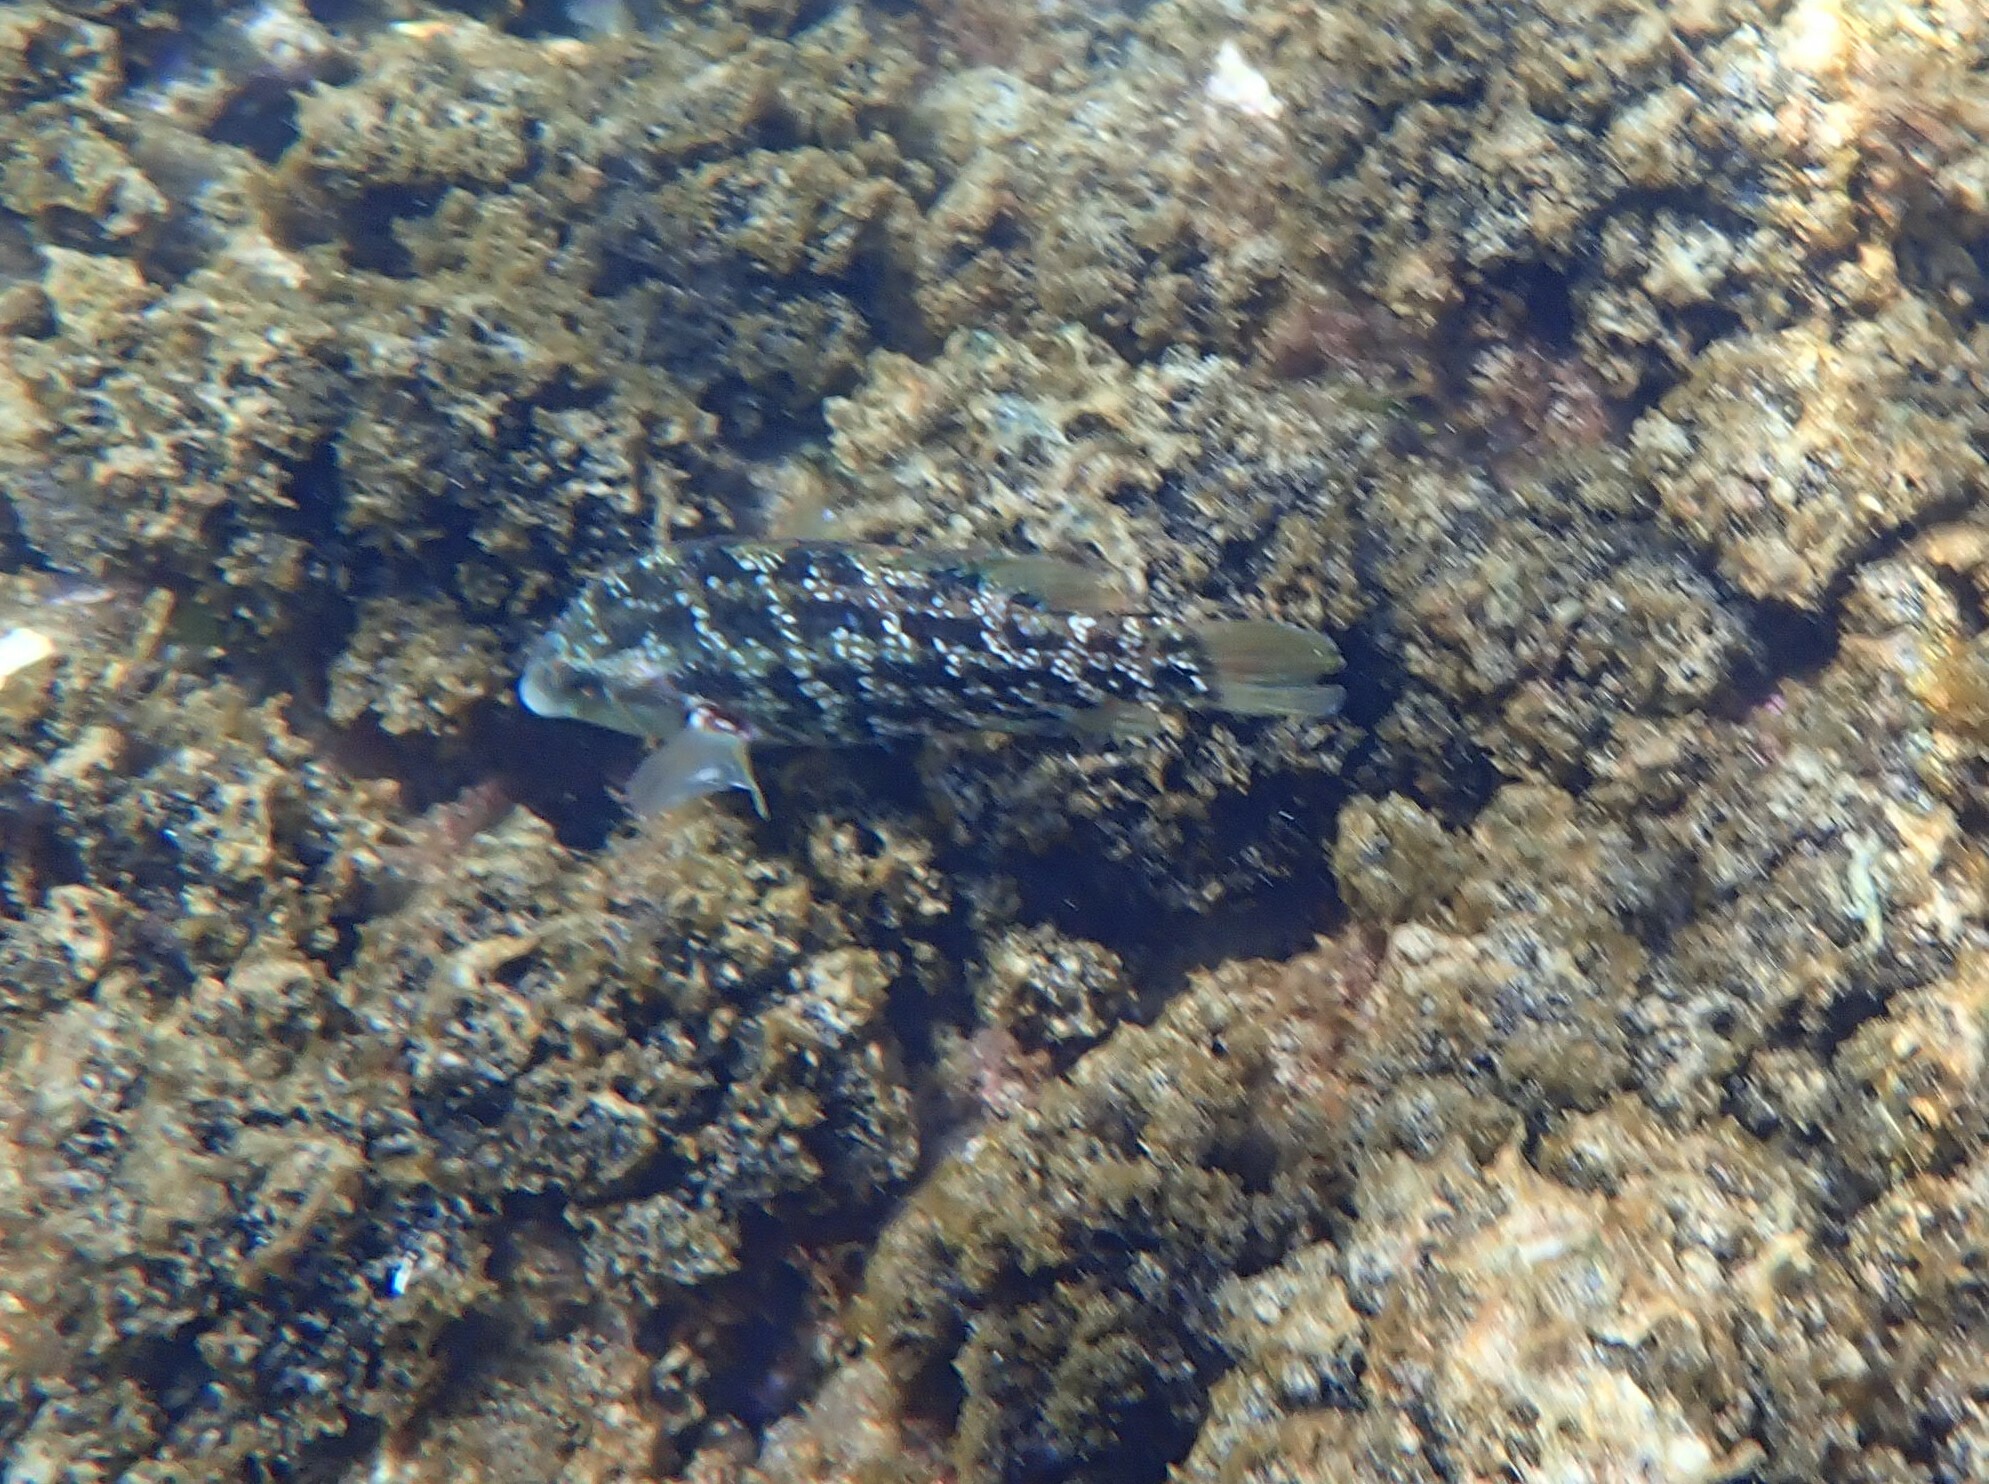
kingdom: Animalia
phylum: Chordata
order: Perciformes
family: Labridae
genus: Symphodus
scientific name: Symphodus caeruleus
